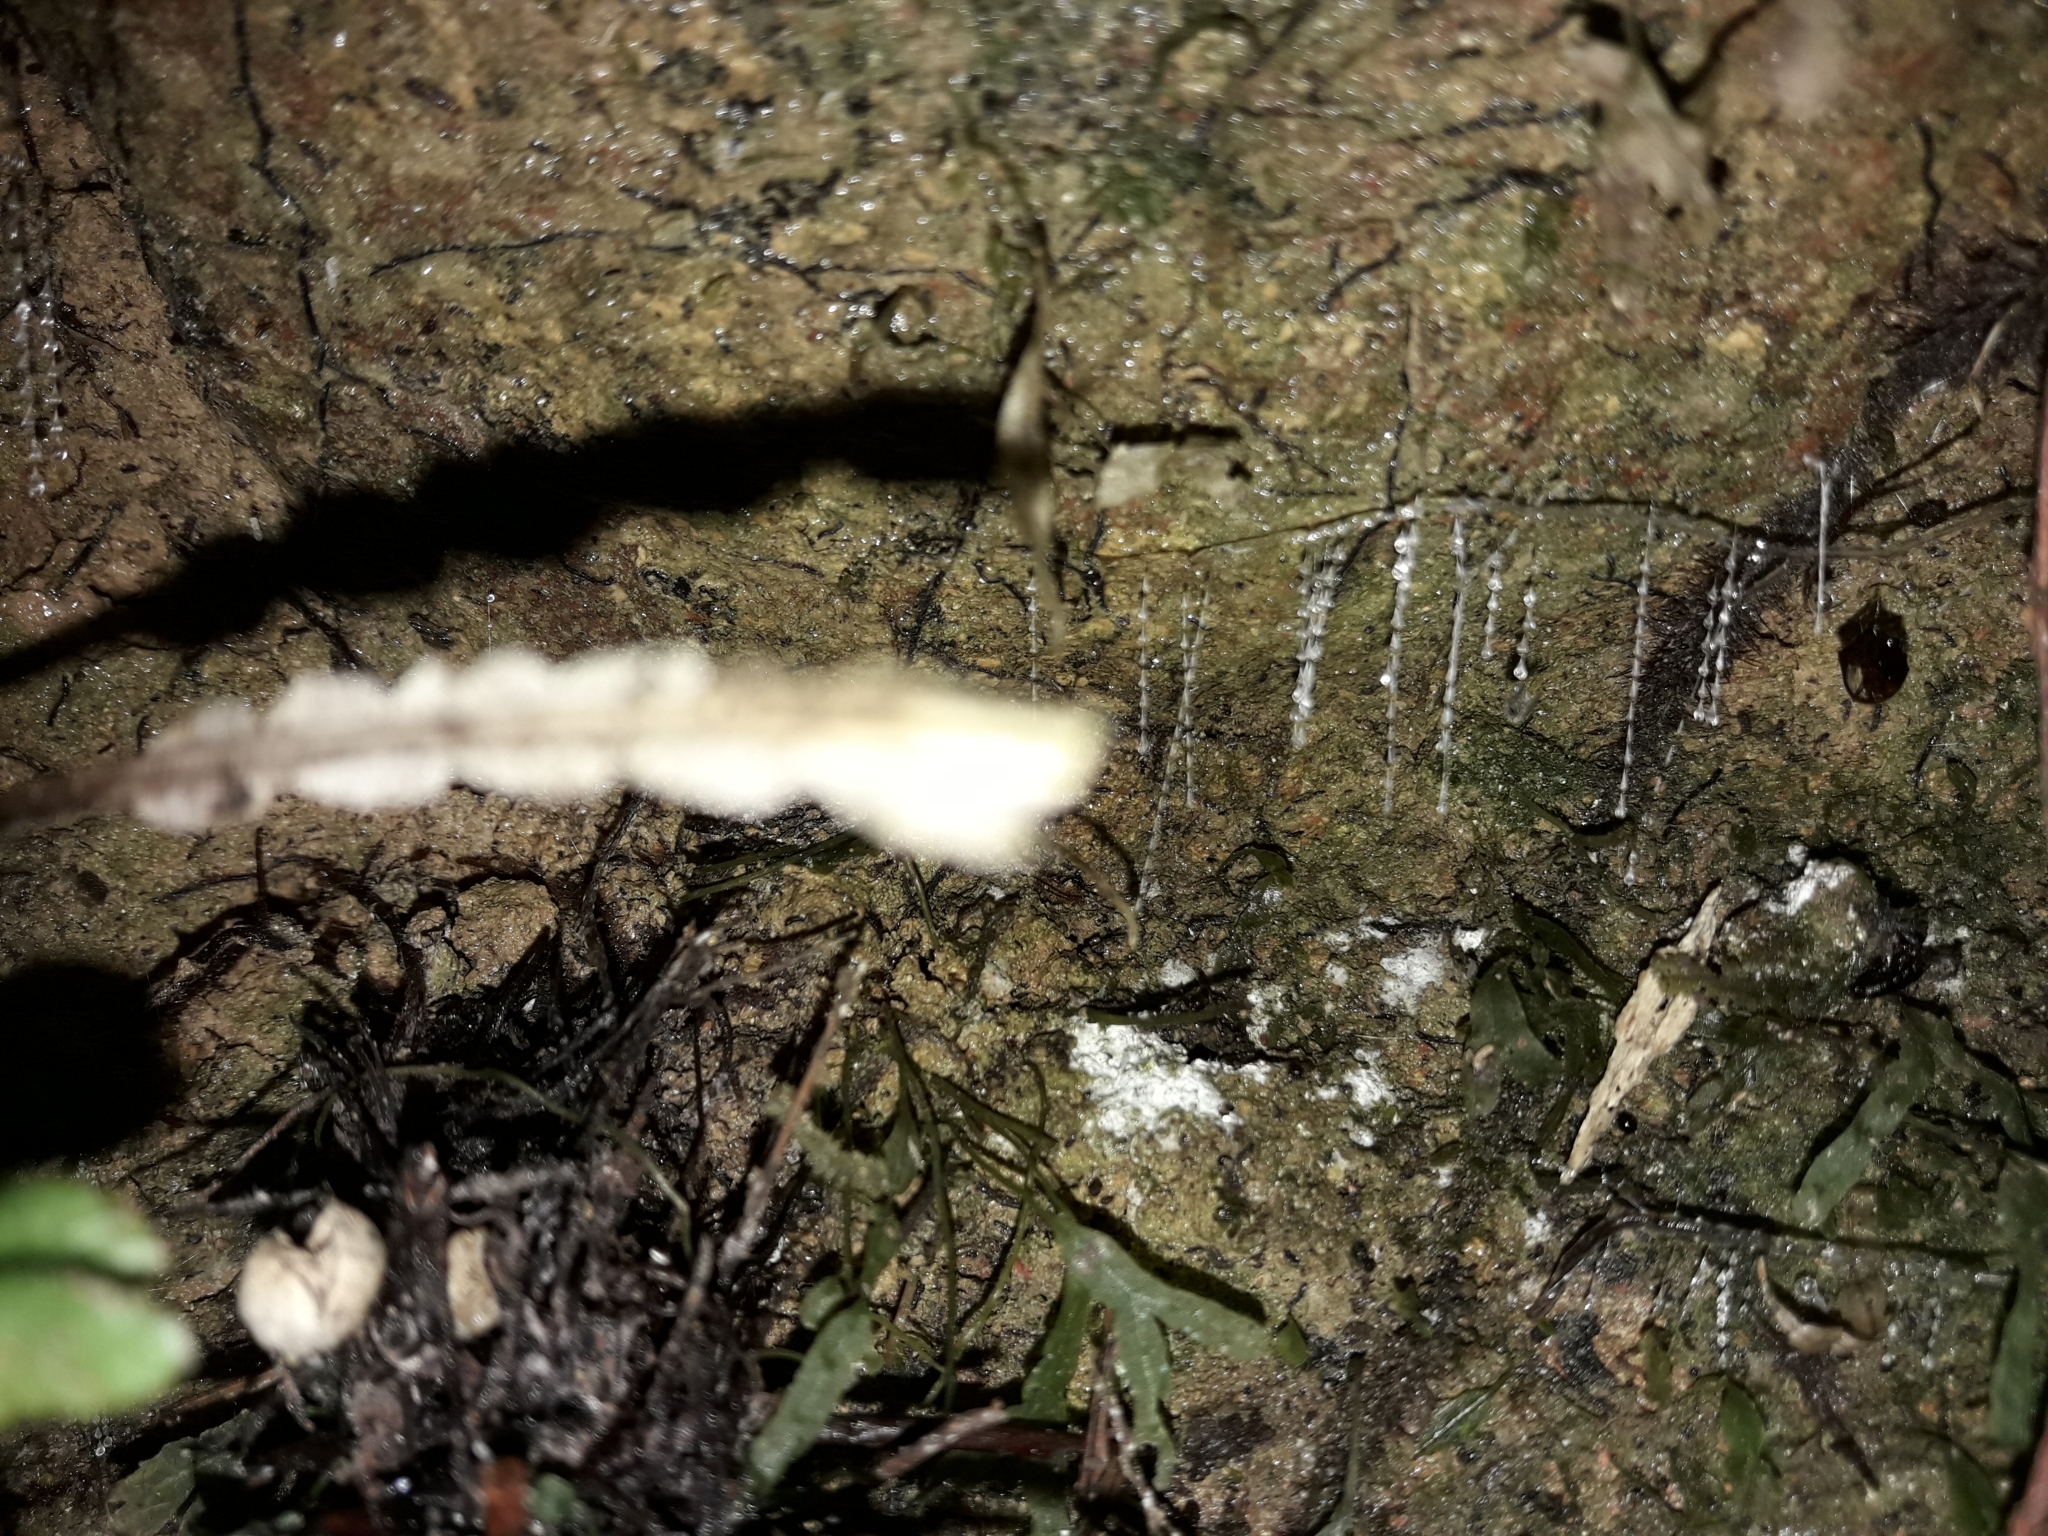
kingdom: Animalia
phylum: Arthropoda
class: Insecta
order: Diptera
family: Keroplatidae
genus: Arachnocampa
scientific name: Arachnocampa luminosa
